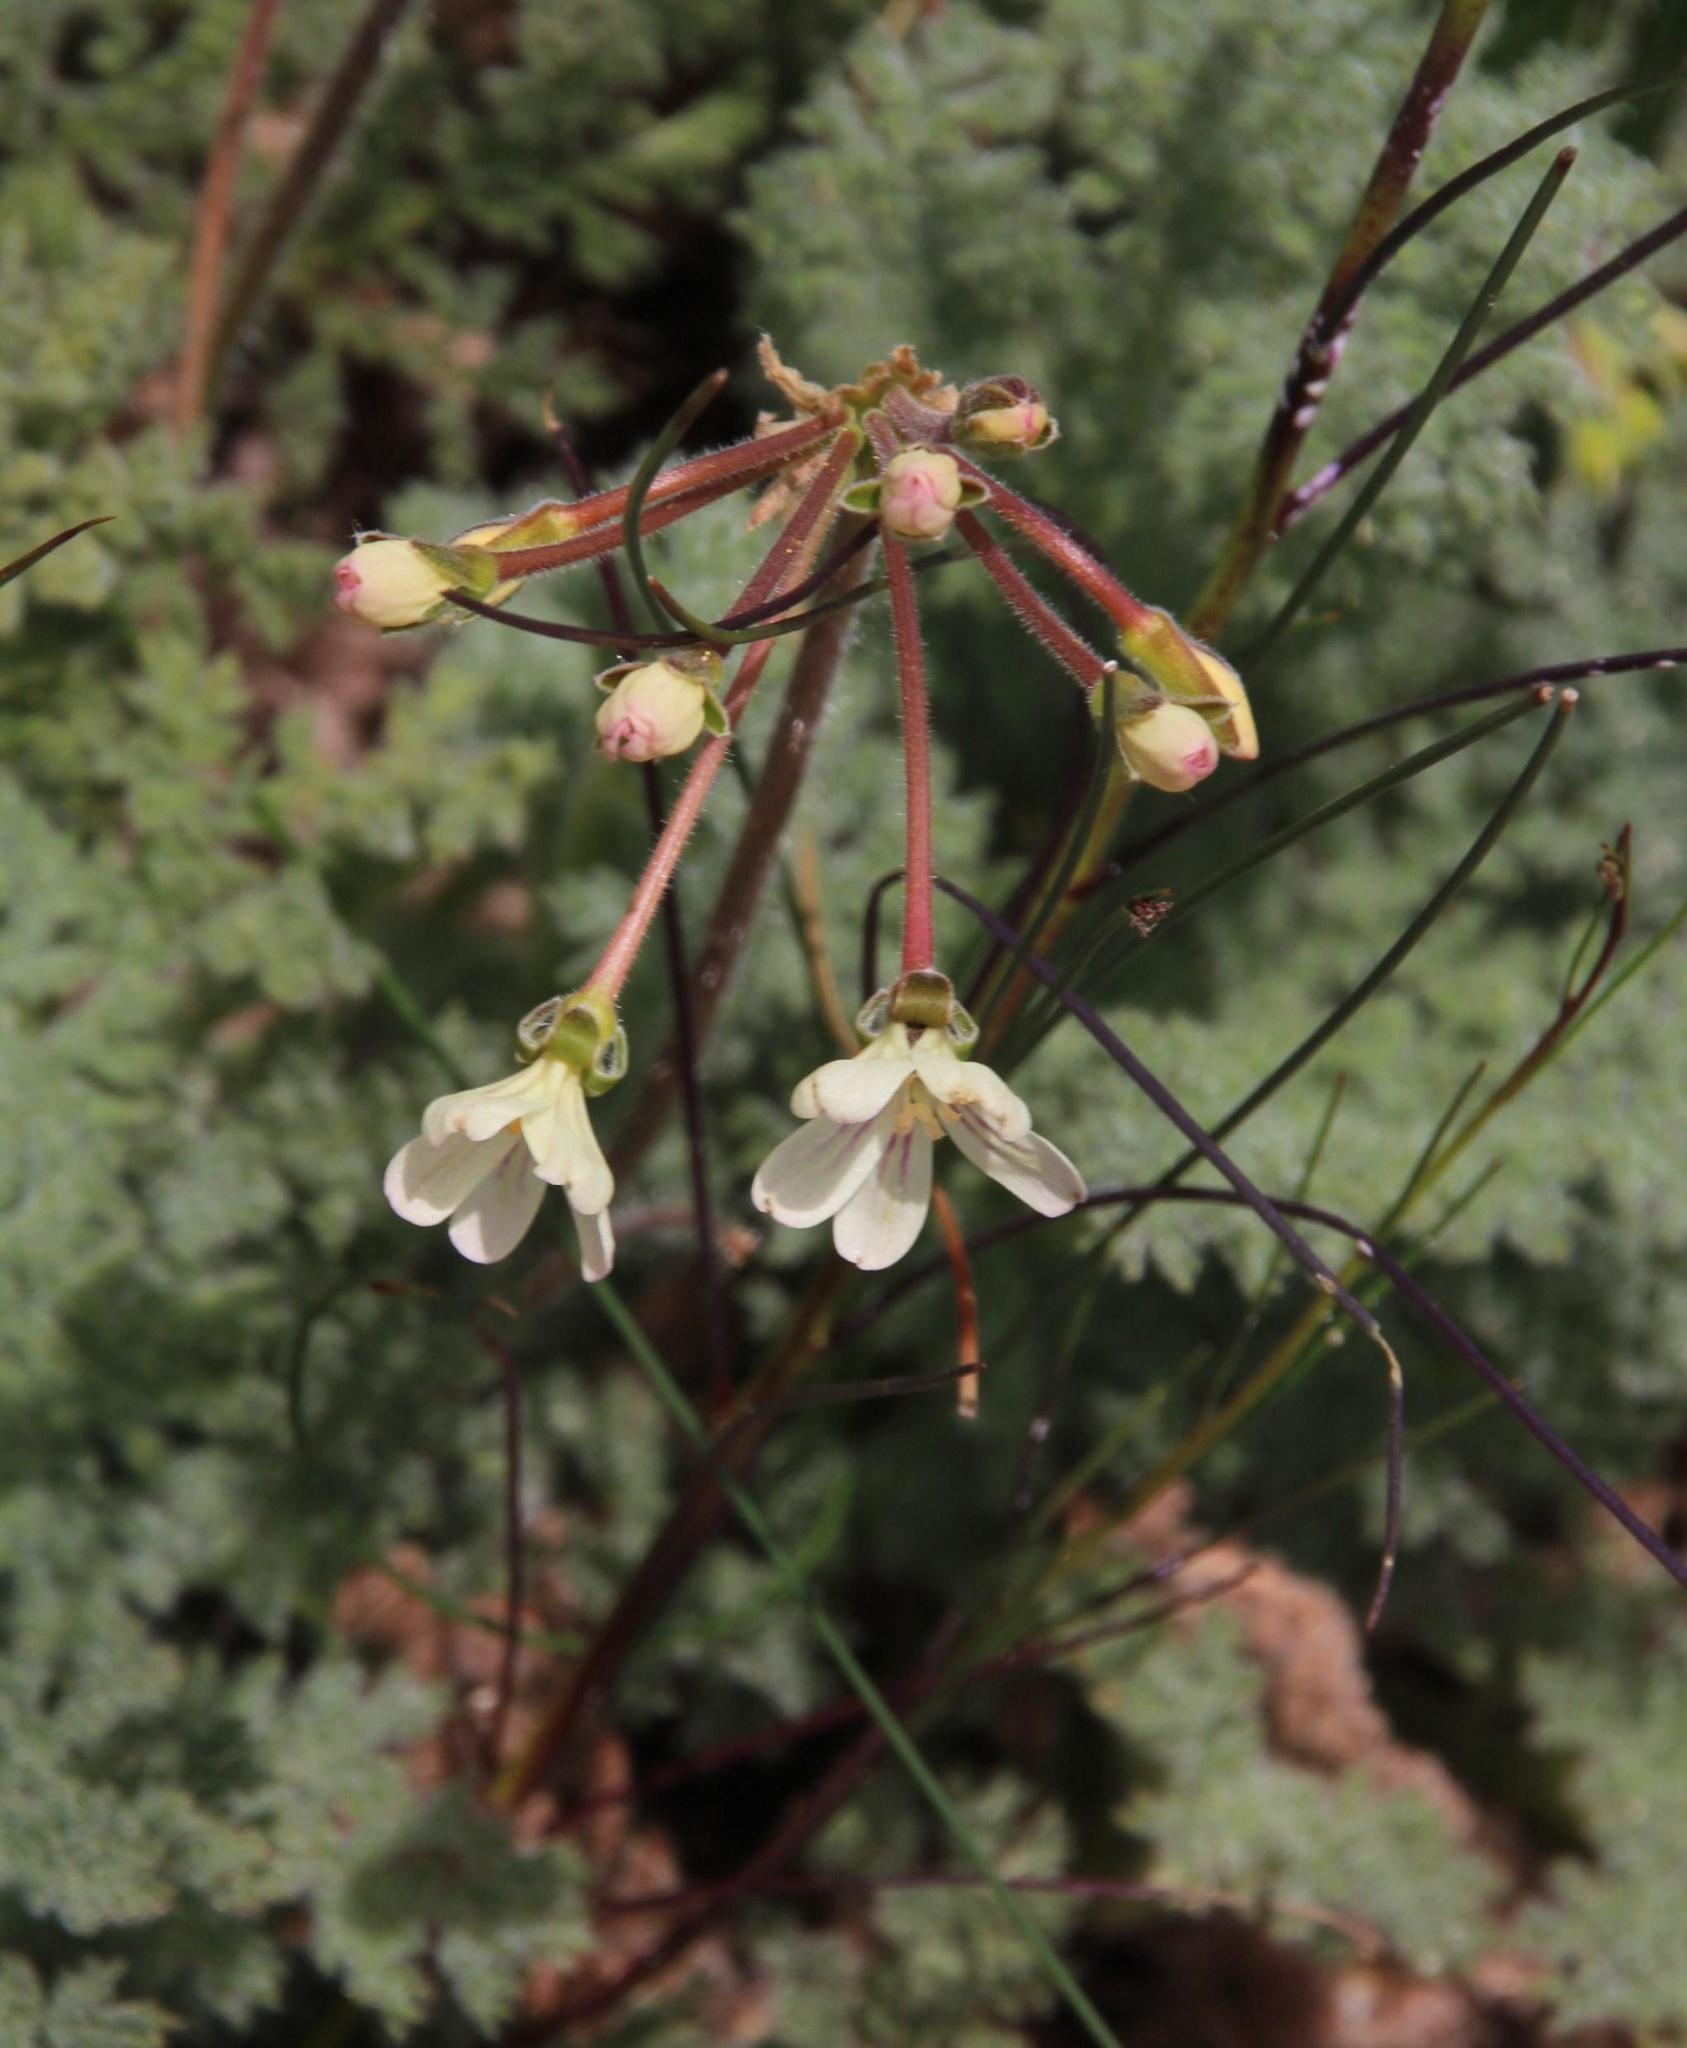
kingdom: Plantae
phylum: Tracheophyta
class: Magnoliopsida
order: Geraniales
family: Geraniaceae
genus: Pelargonium
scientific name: Pelargonium triste
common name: Night-scent pelargonium
